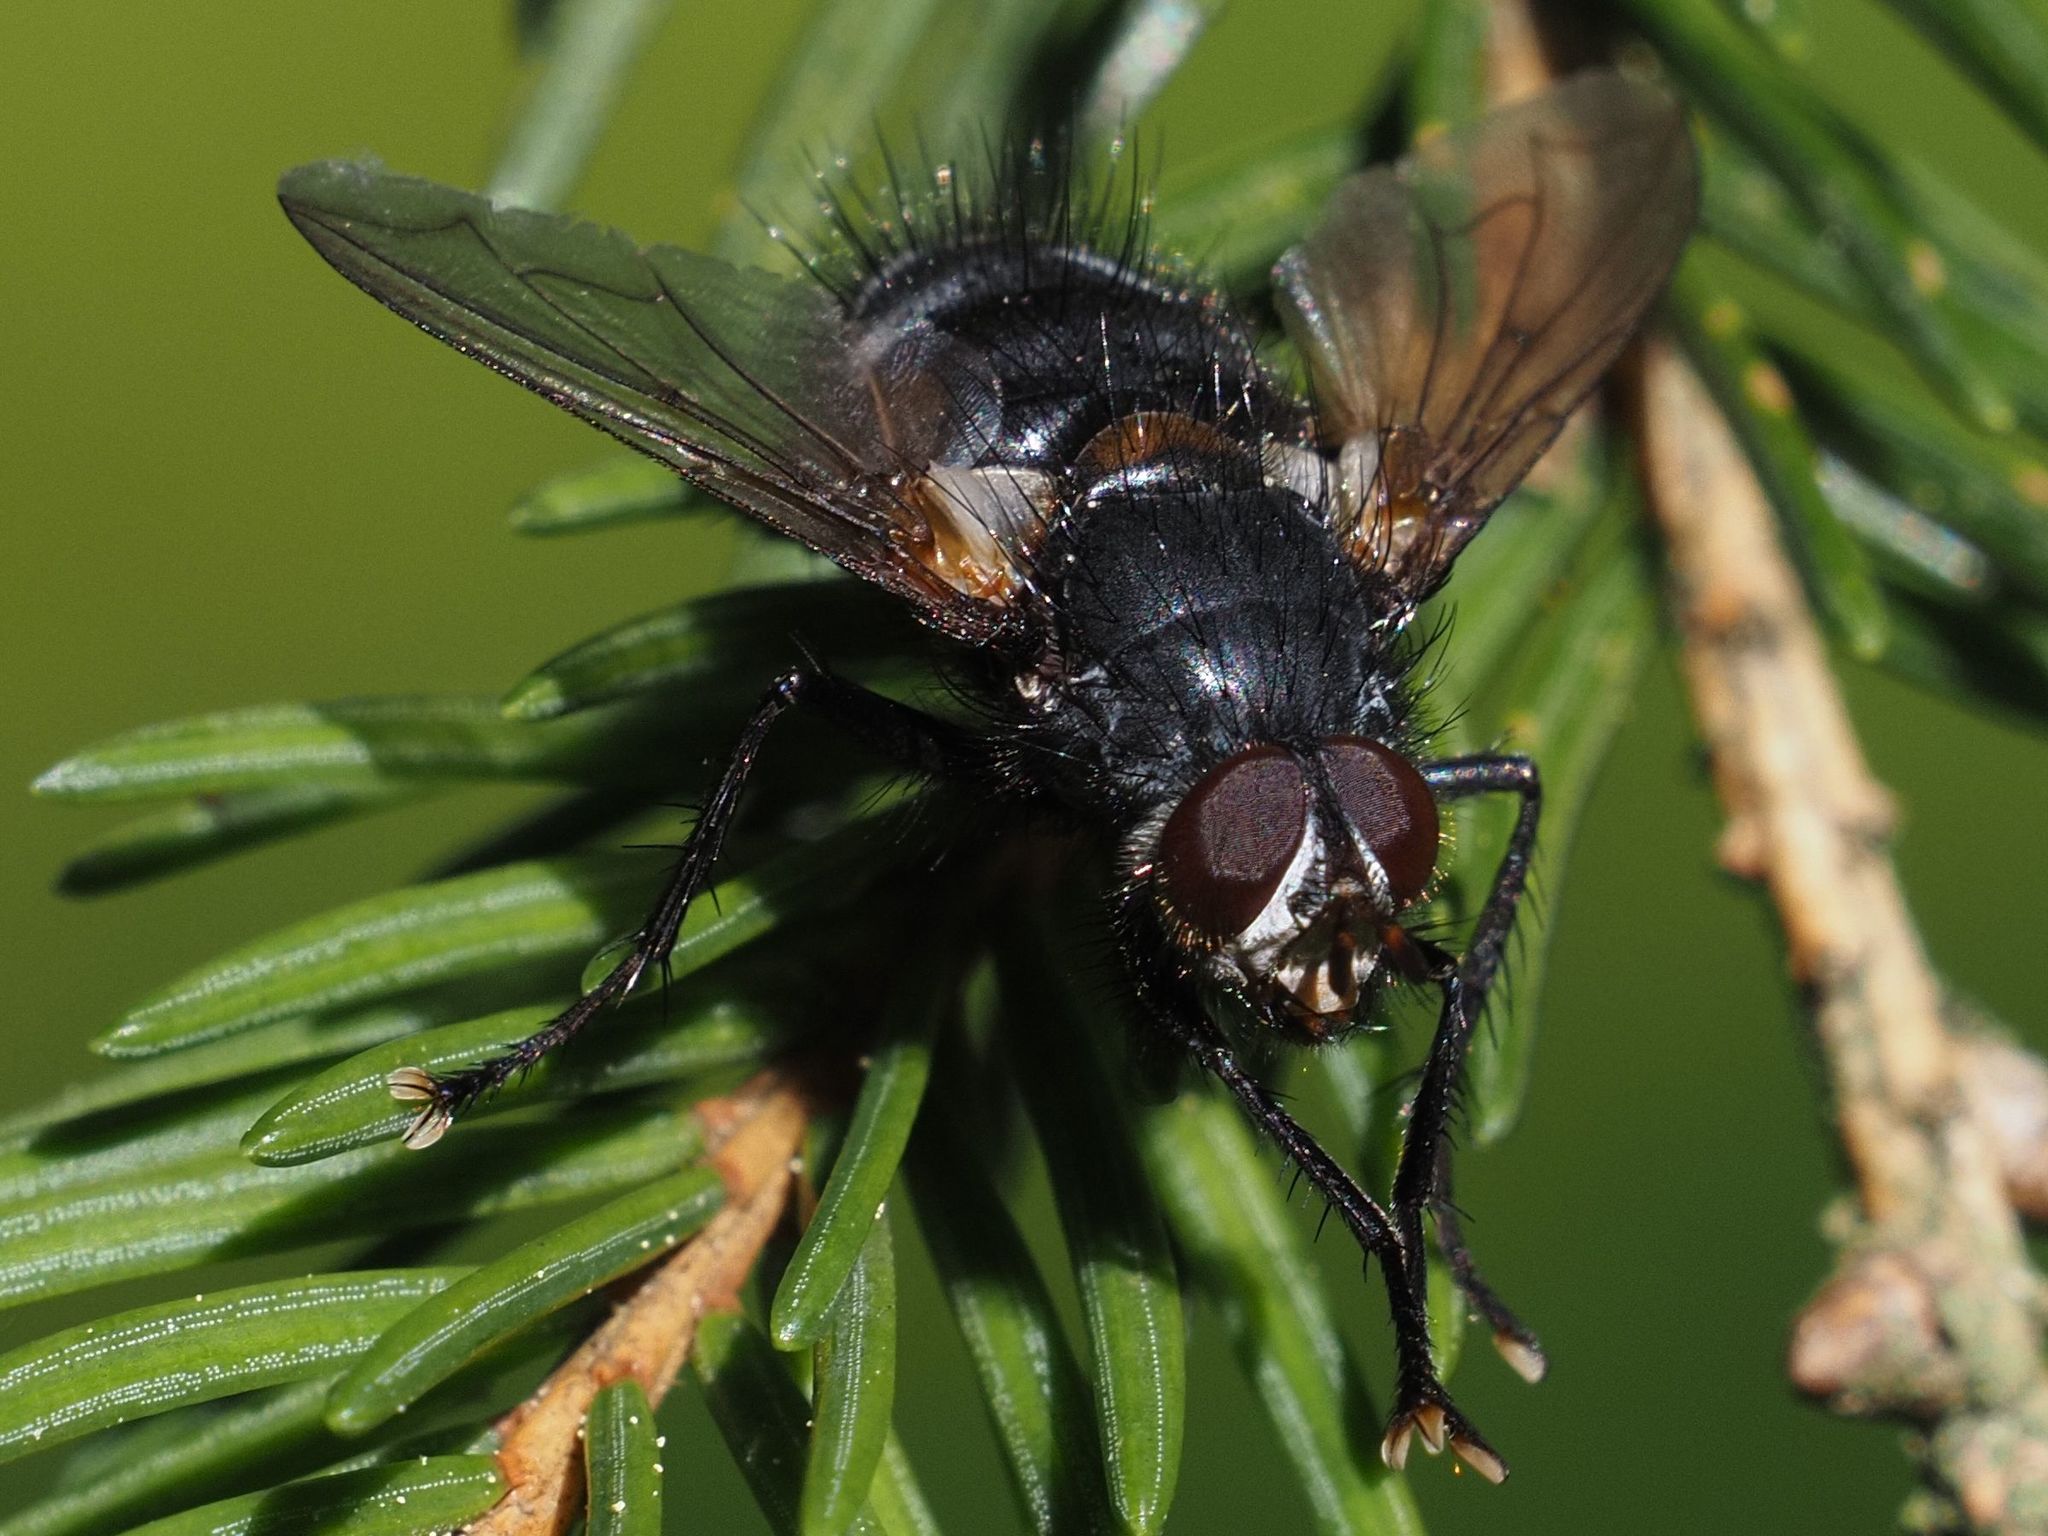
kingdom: Animalia
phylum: Arthropoda
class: Insecta
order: Diptera
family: Tachinidae
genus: Panzeria
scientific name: Panzeria rudis
